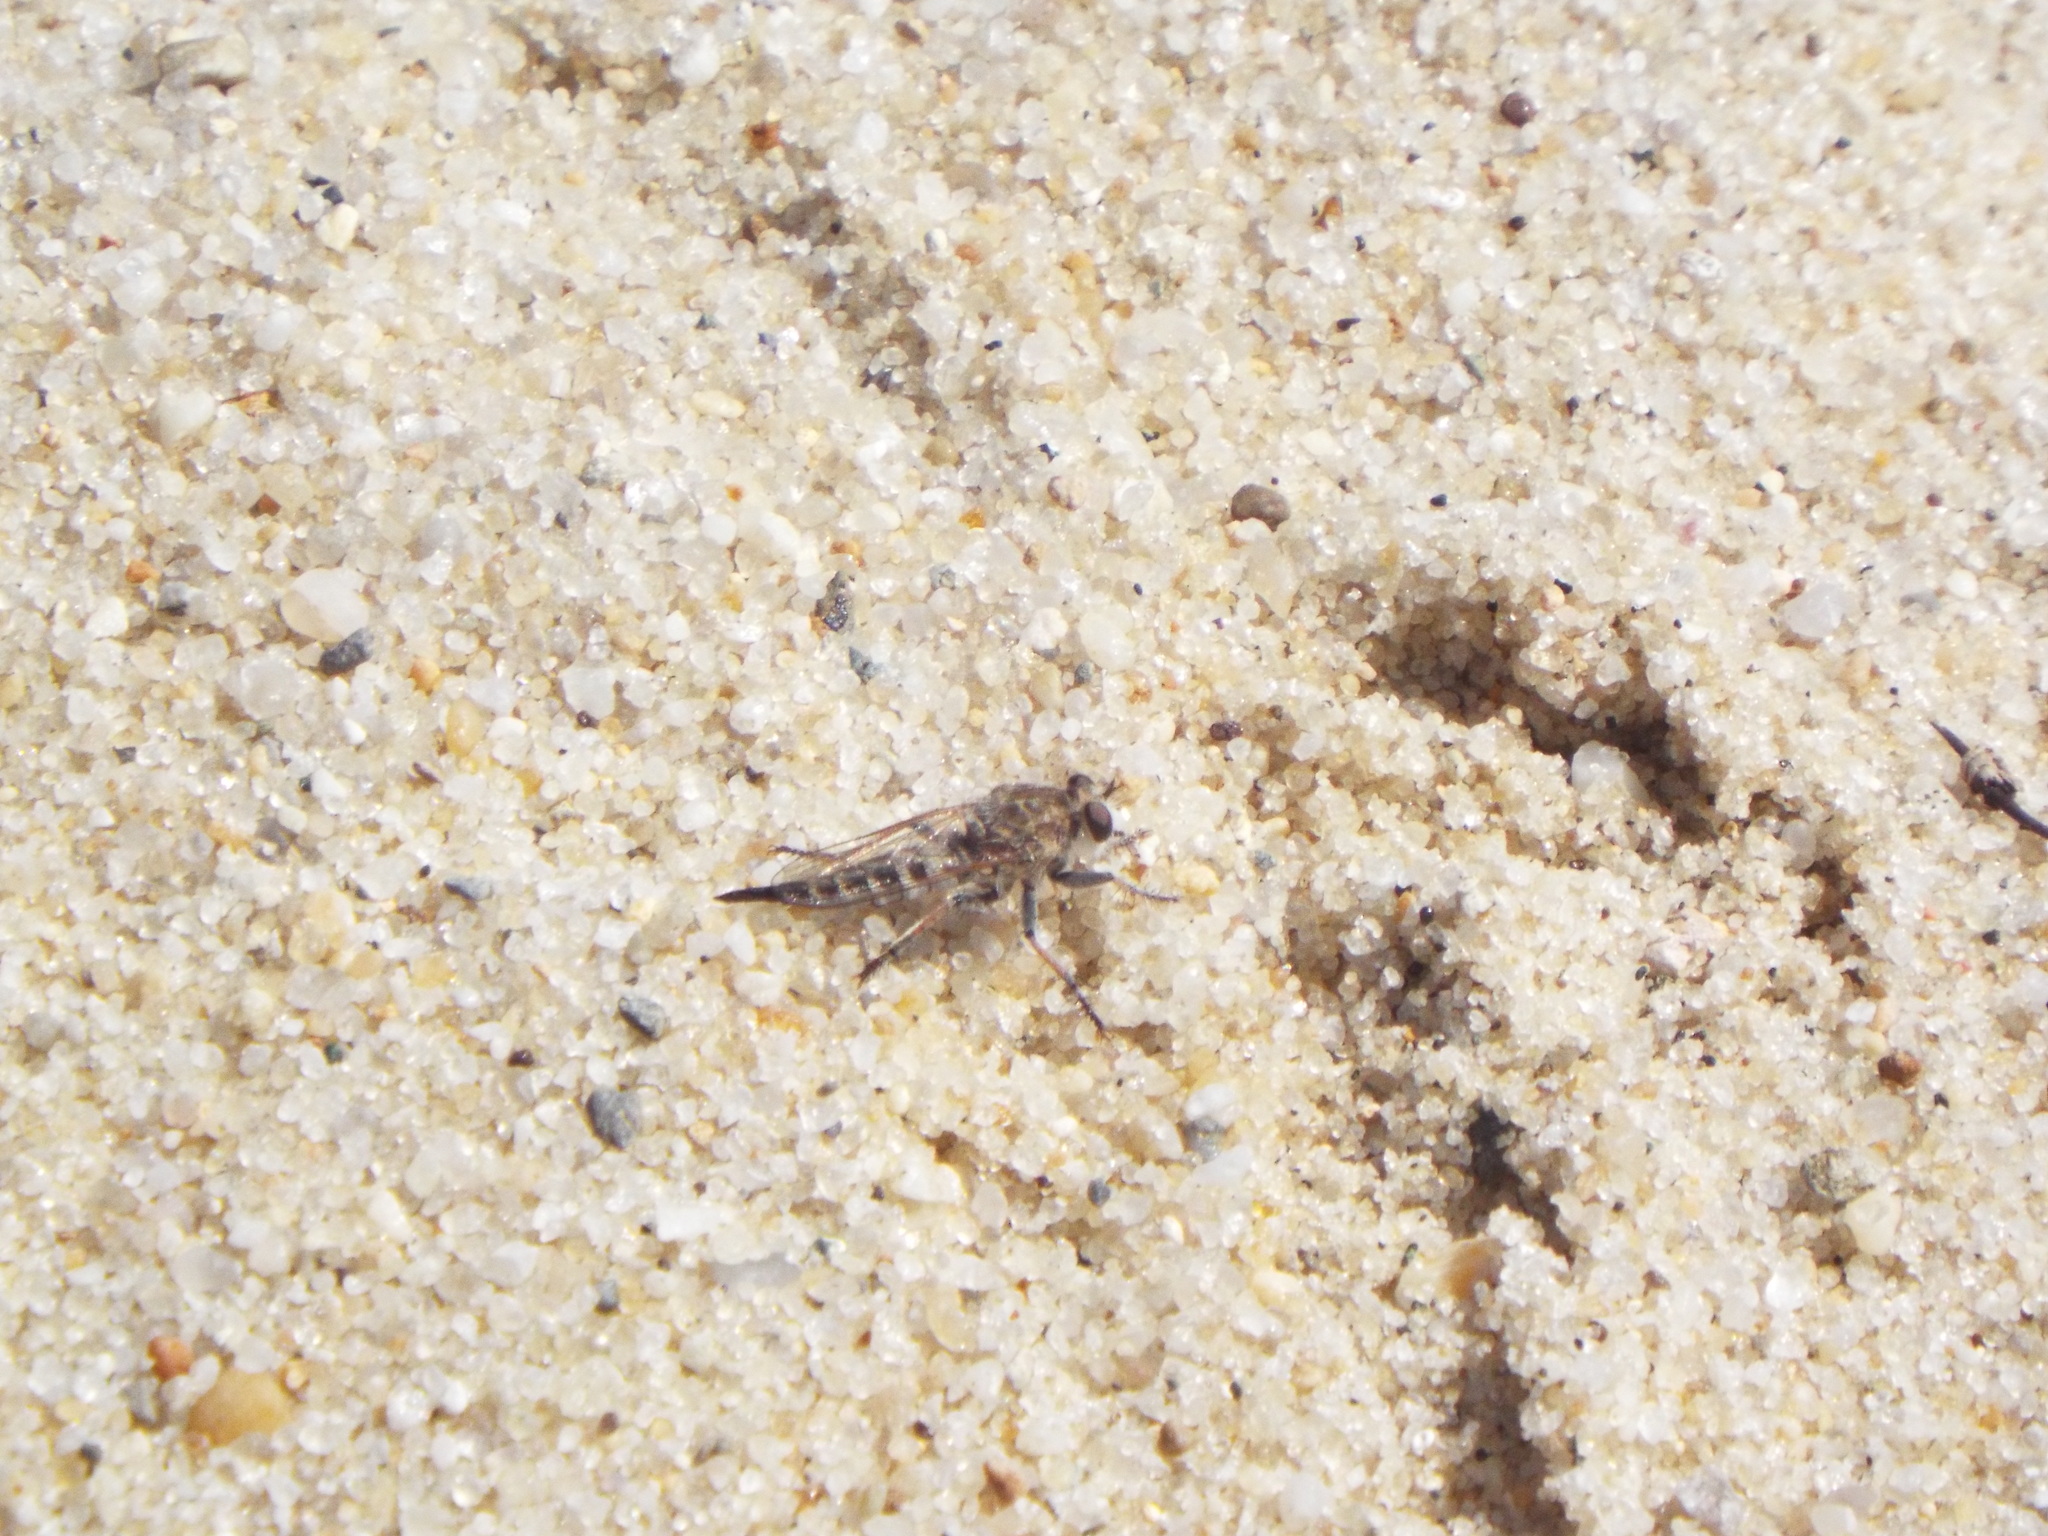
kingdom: Animalia
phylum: Arthropoda
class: Insecta
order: Diptera
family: Asilidae
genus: Efferia
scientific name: Efferia albibarbis
